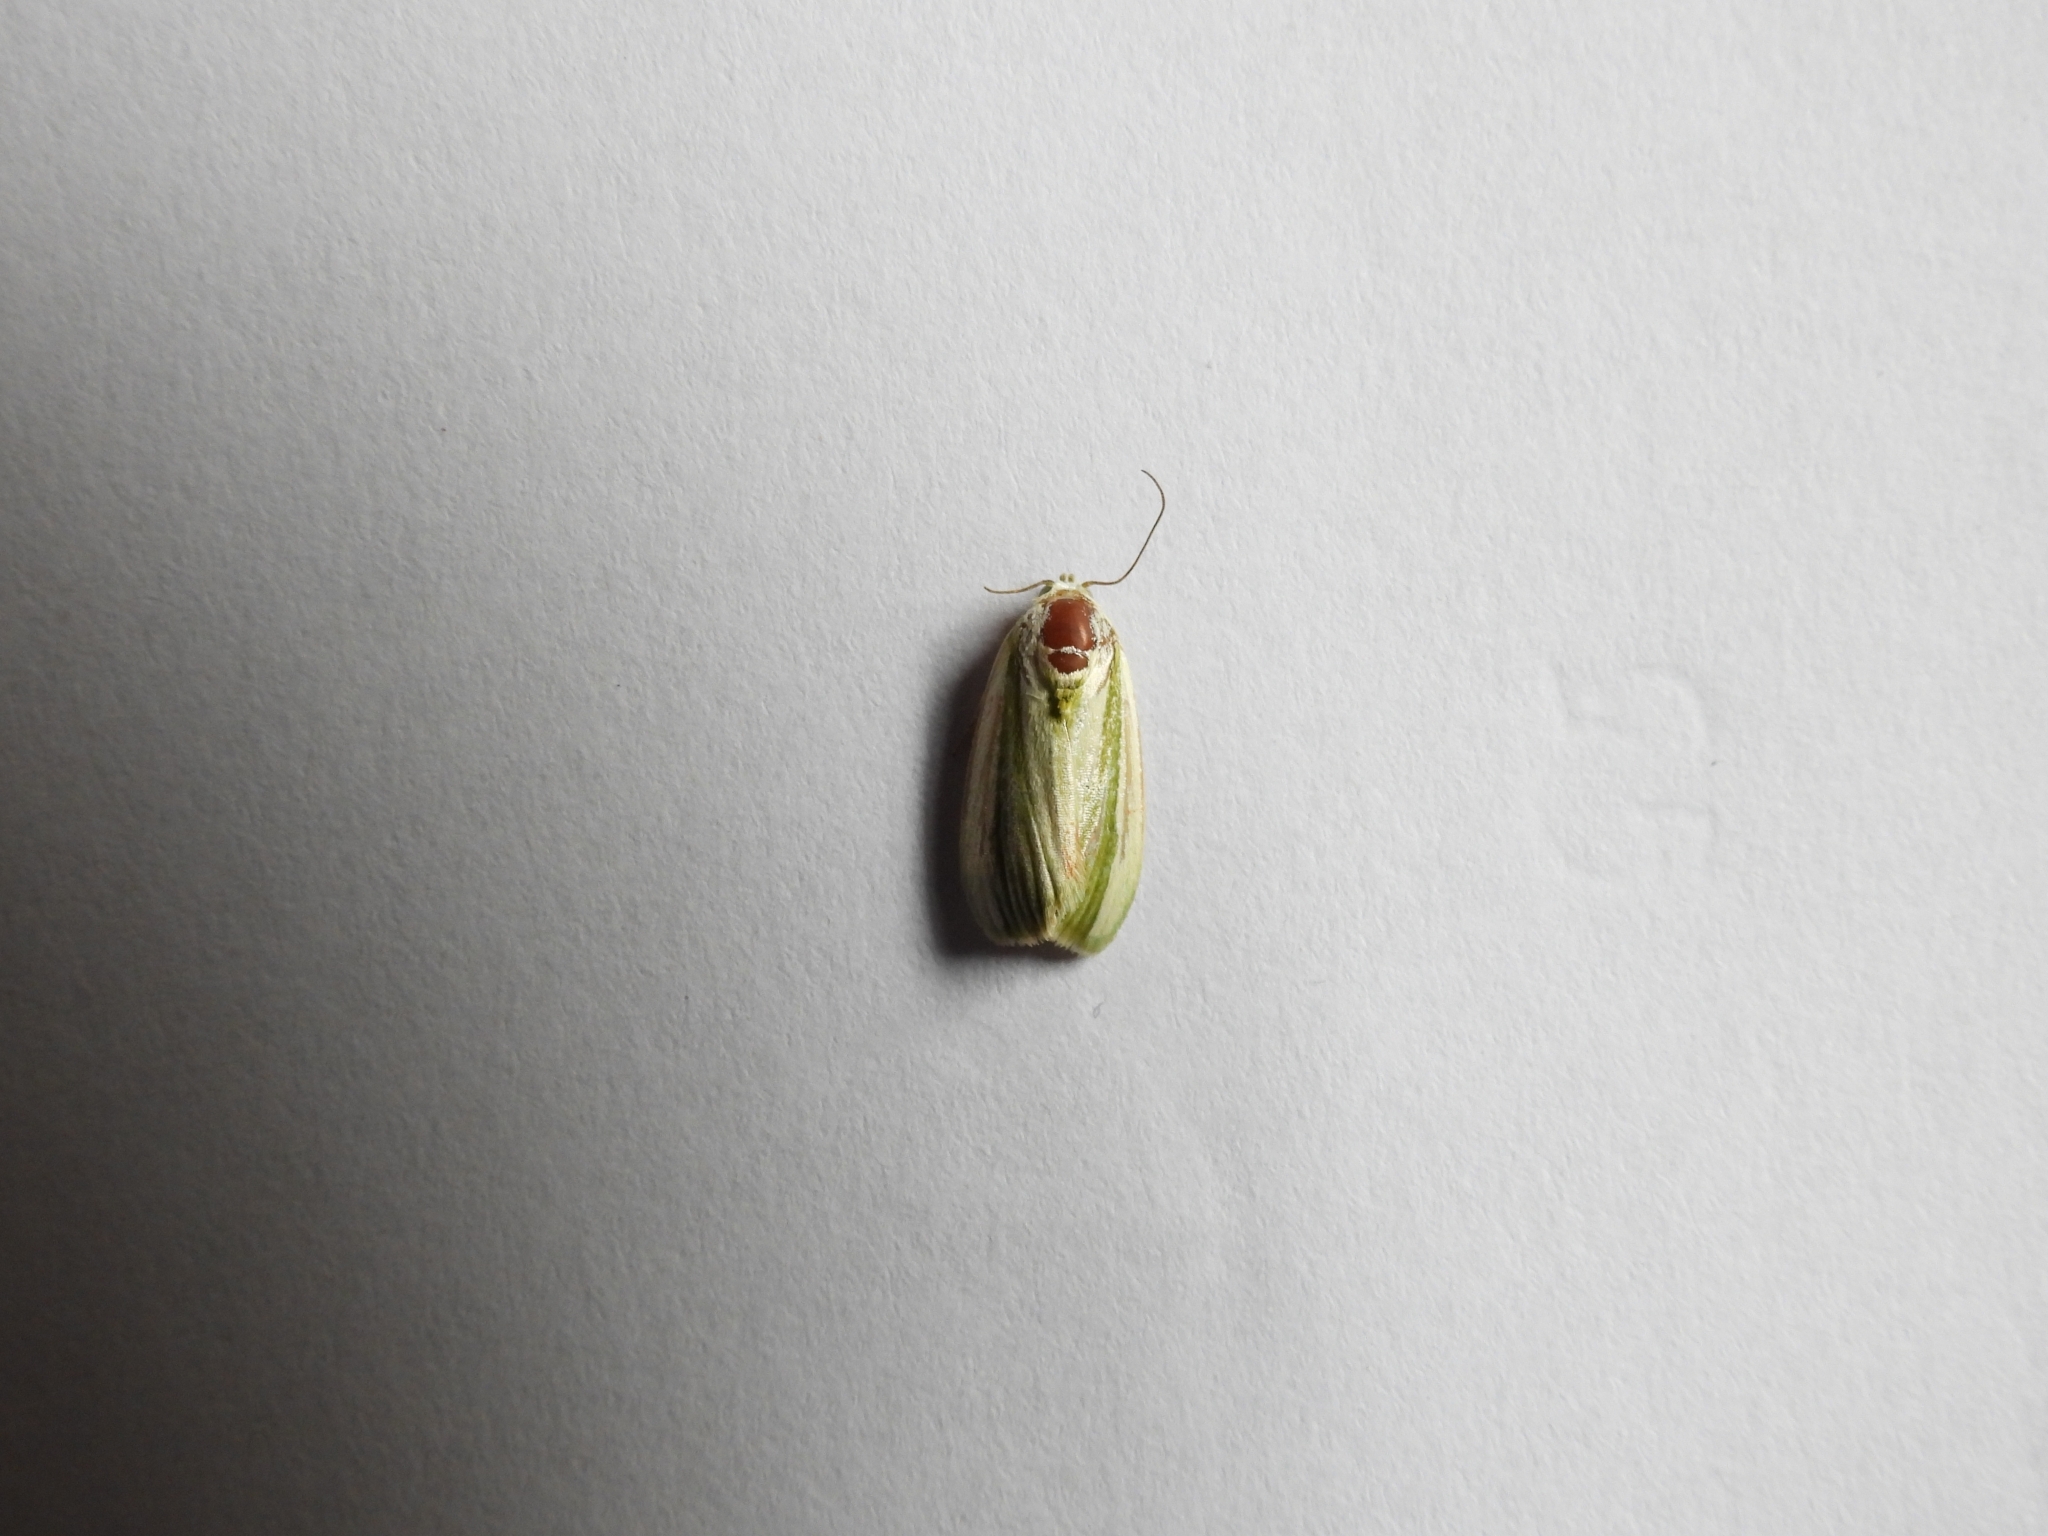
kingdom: Animalia
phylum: Arthropoda
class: Insecta
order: Lepidoptera
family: Nolidae
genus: Earias
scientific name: Earias vittella
